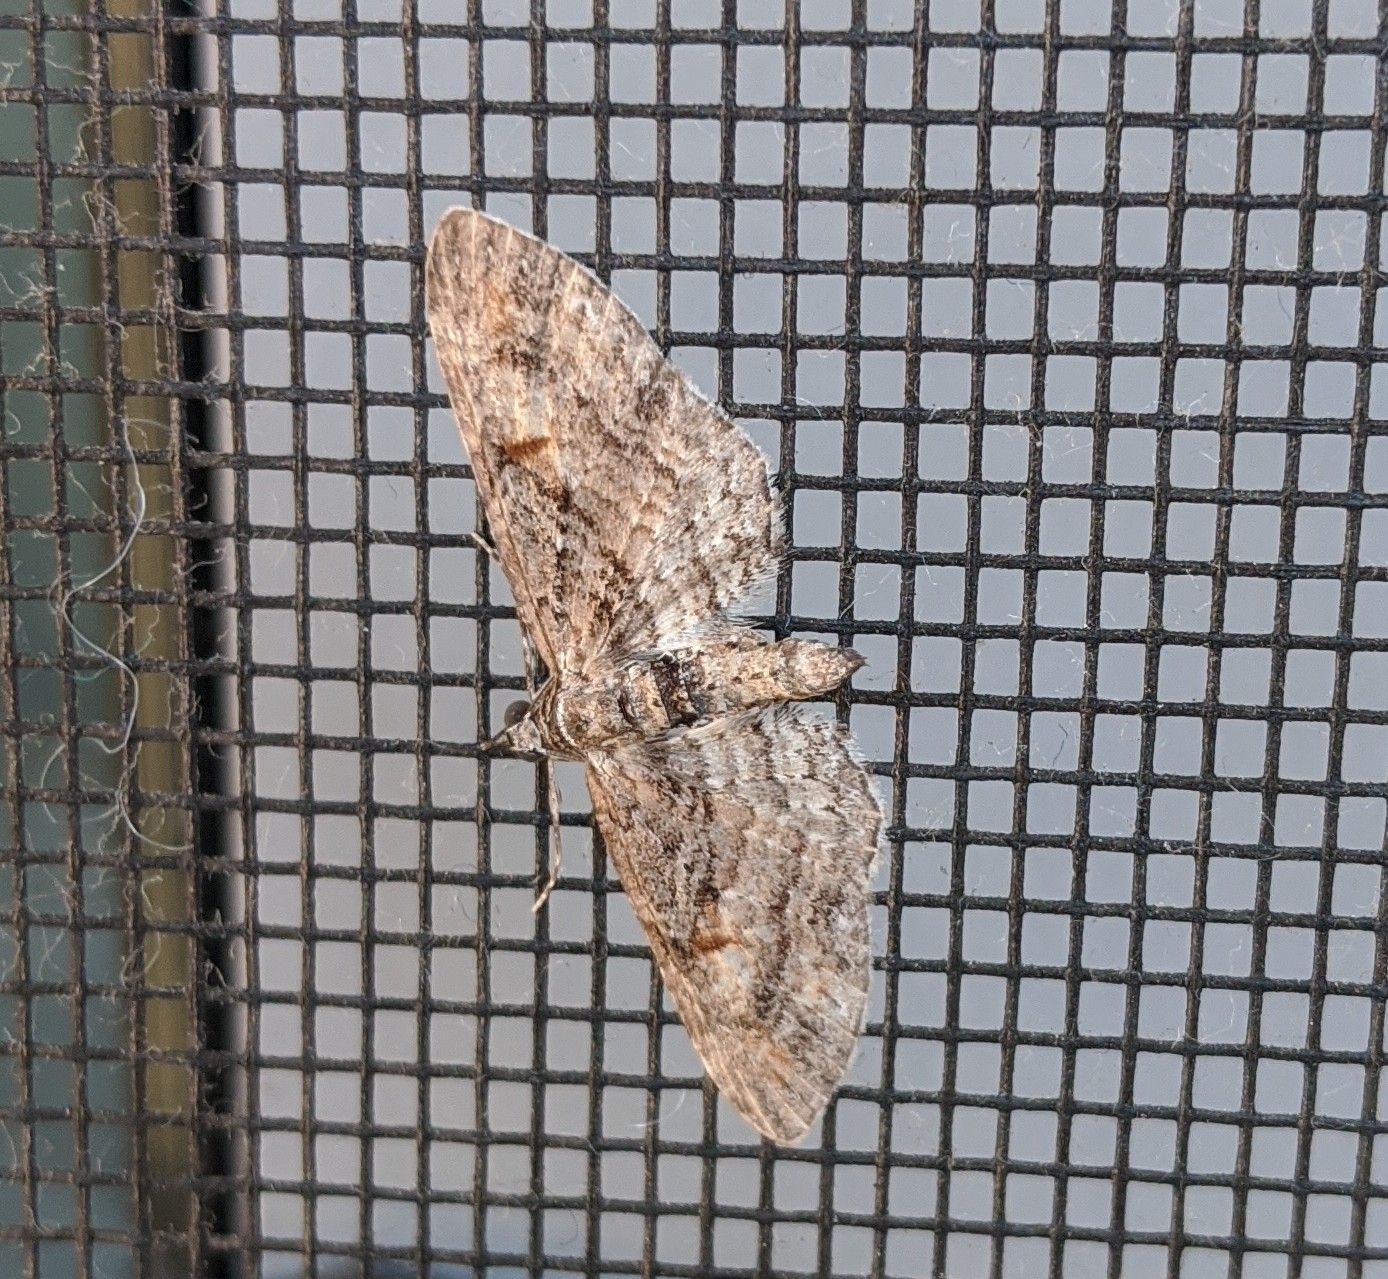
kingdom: Animalia
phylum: Arthropoda
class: Insecta
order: Lepidoptera
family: Geometridae
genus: Eupithecia
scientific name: Eupithecia graefii
